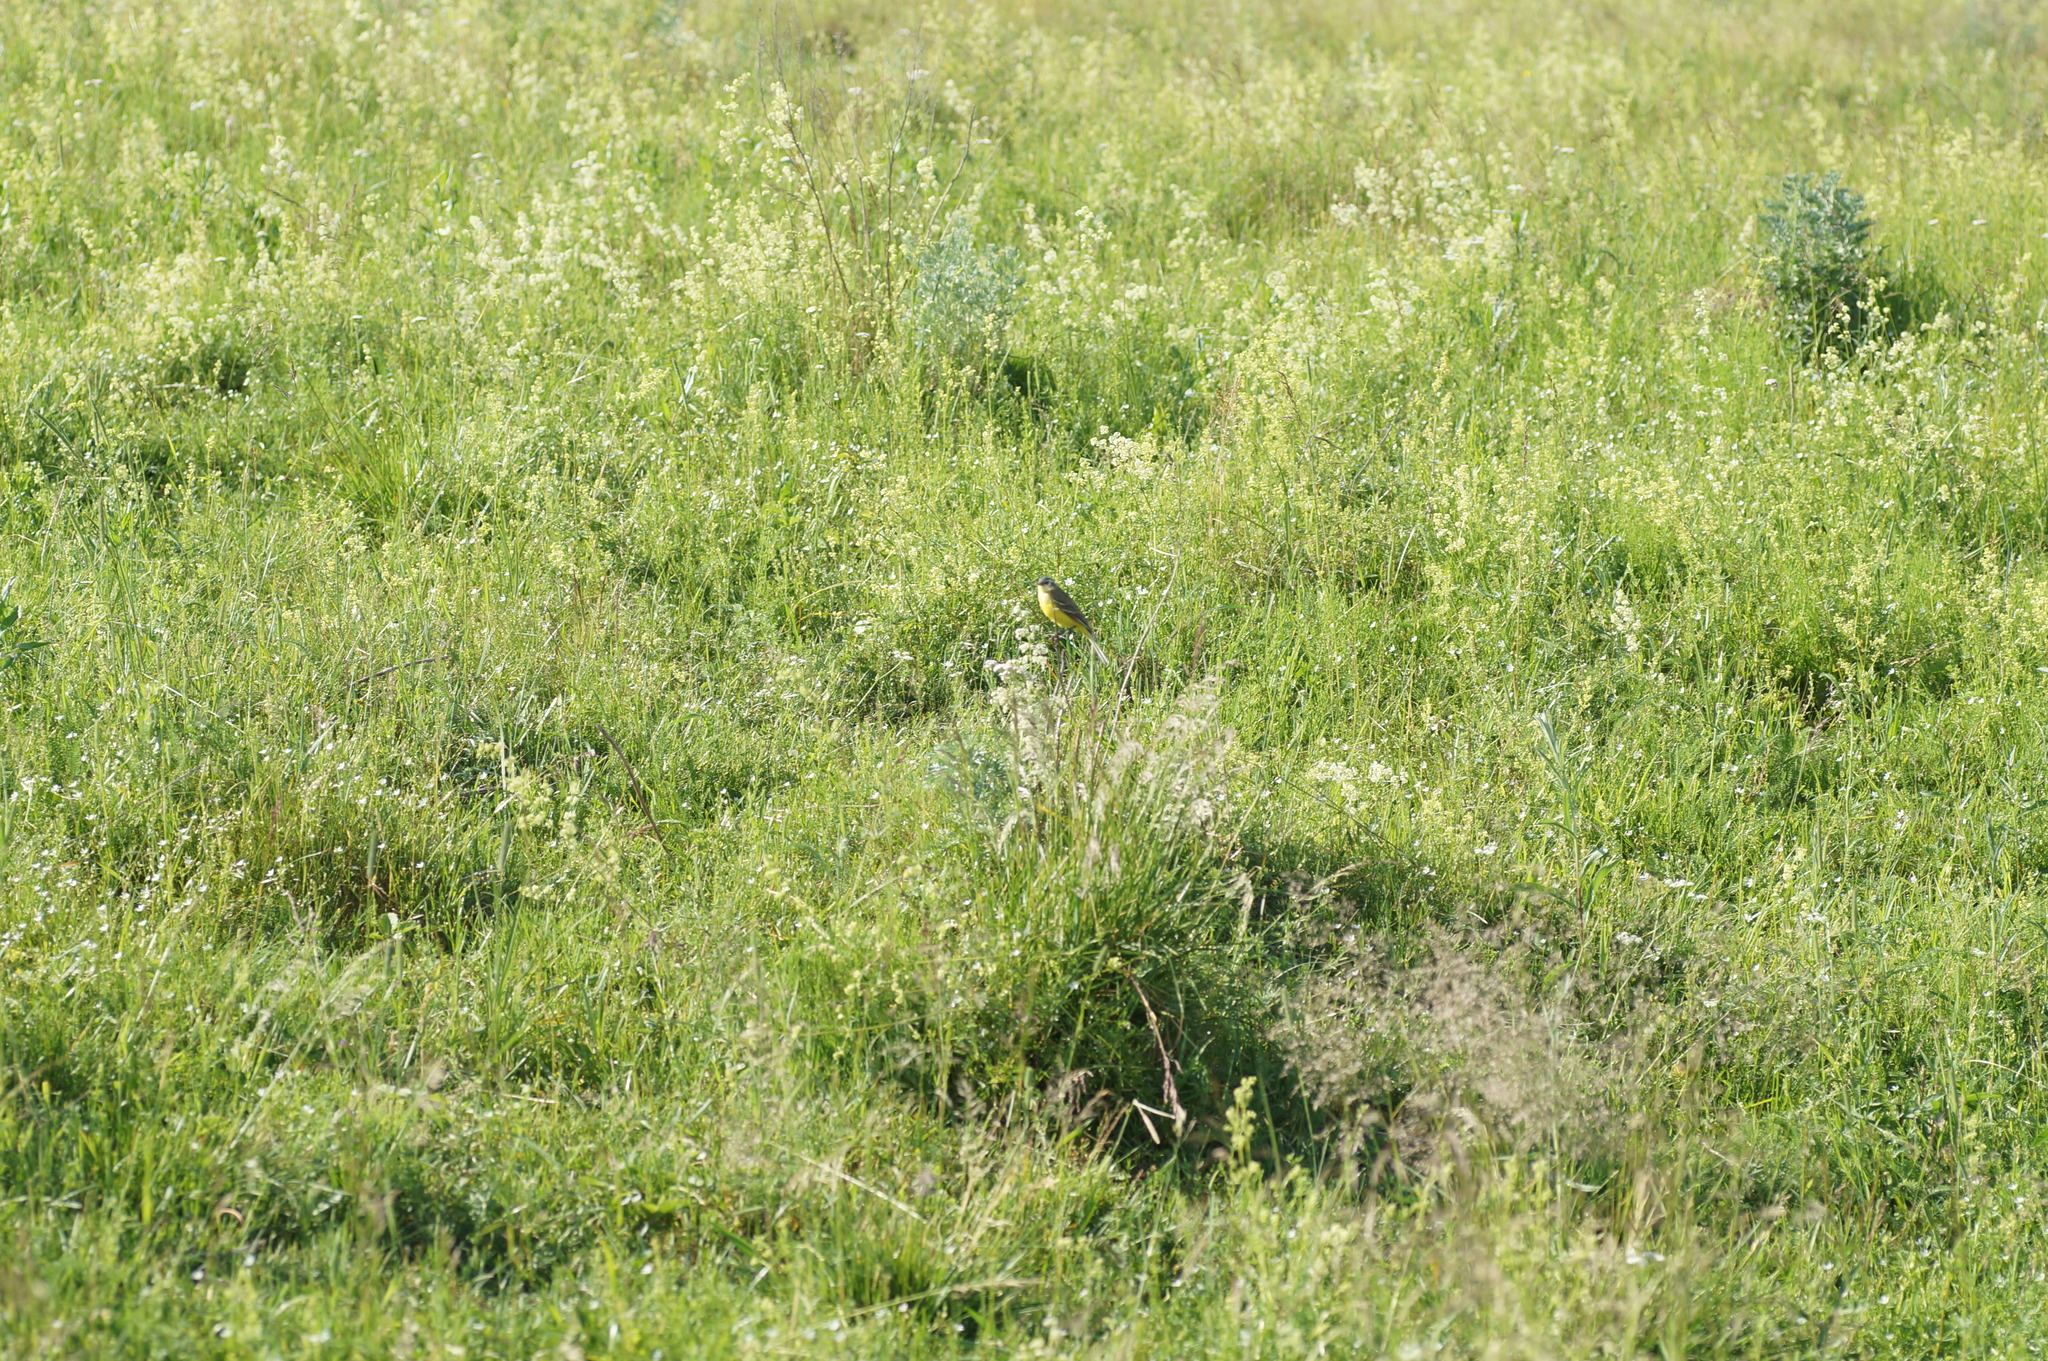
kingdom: Animalia
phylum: Chordata
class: Aves
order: Passeriformes
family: Motacillidae
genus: Motacilla
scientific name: Motacilla flava
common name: Western yellow wagtail
